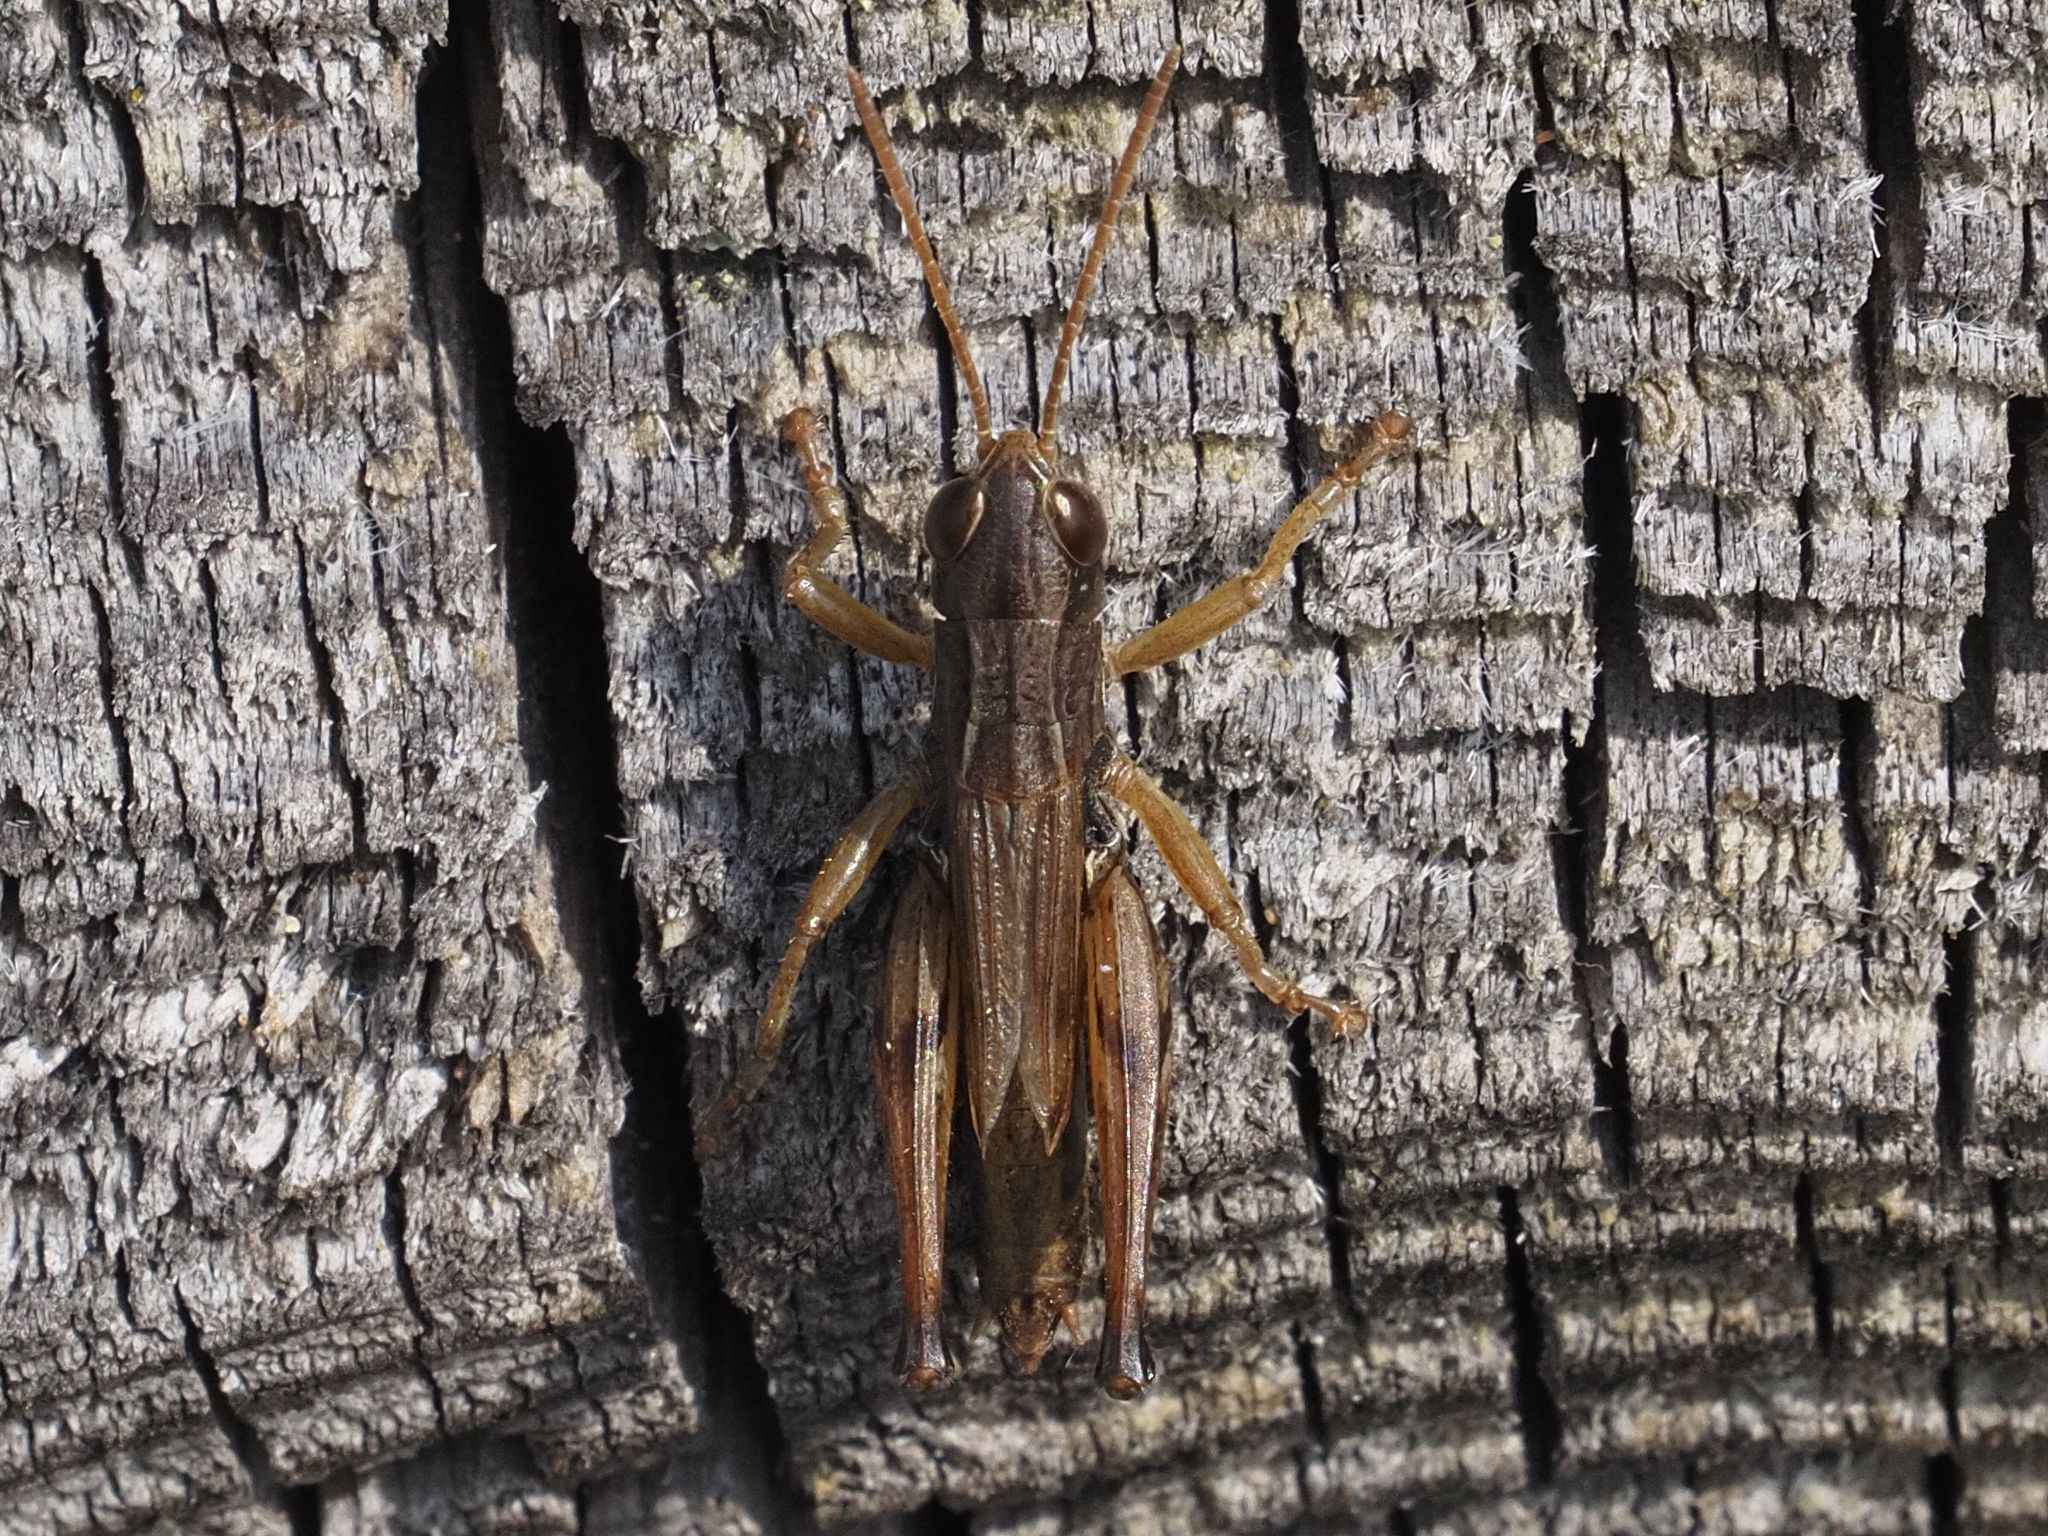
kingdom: Animalia
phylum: Arthropoda
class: Insecta
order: Orthoptera
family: Acrididae
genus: Stenobothrus
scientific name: Stenobothrus crassipes
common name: Pygmy toothed grasshopper
